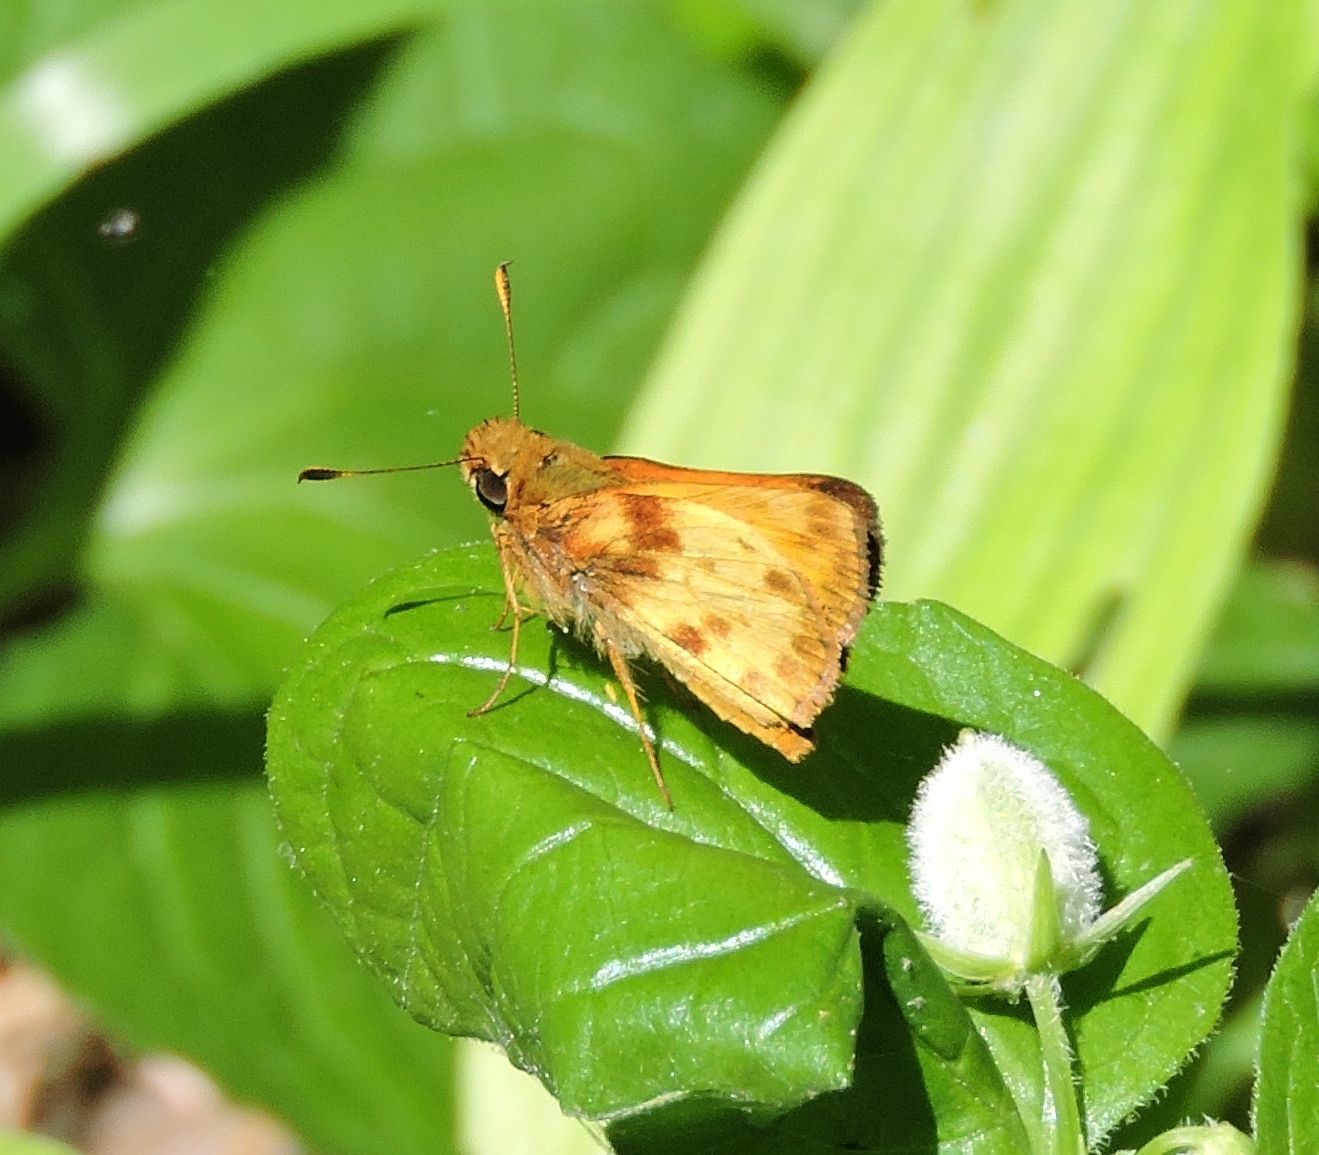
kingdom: Animalia
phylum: Arthropoda
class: Insecta
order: Lepidoptera
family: Hesperiidae
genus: Lon
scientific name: Lon zabulon
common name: Zabulon skipper
